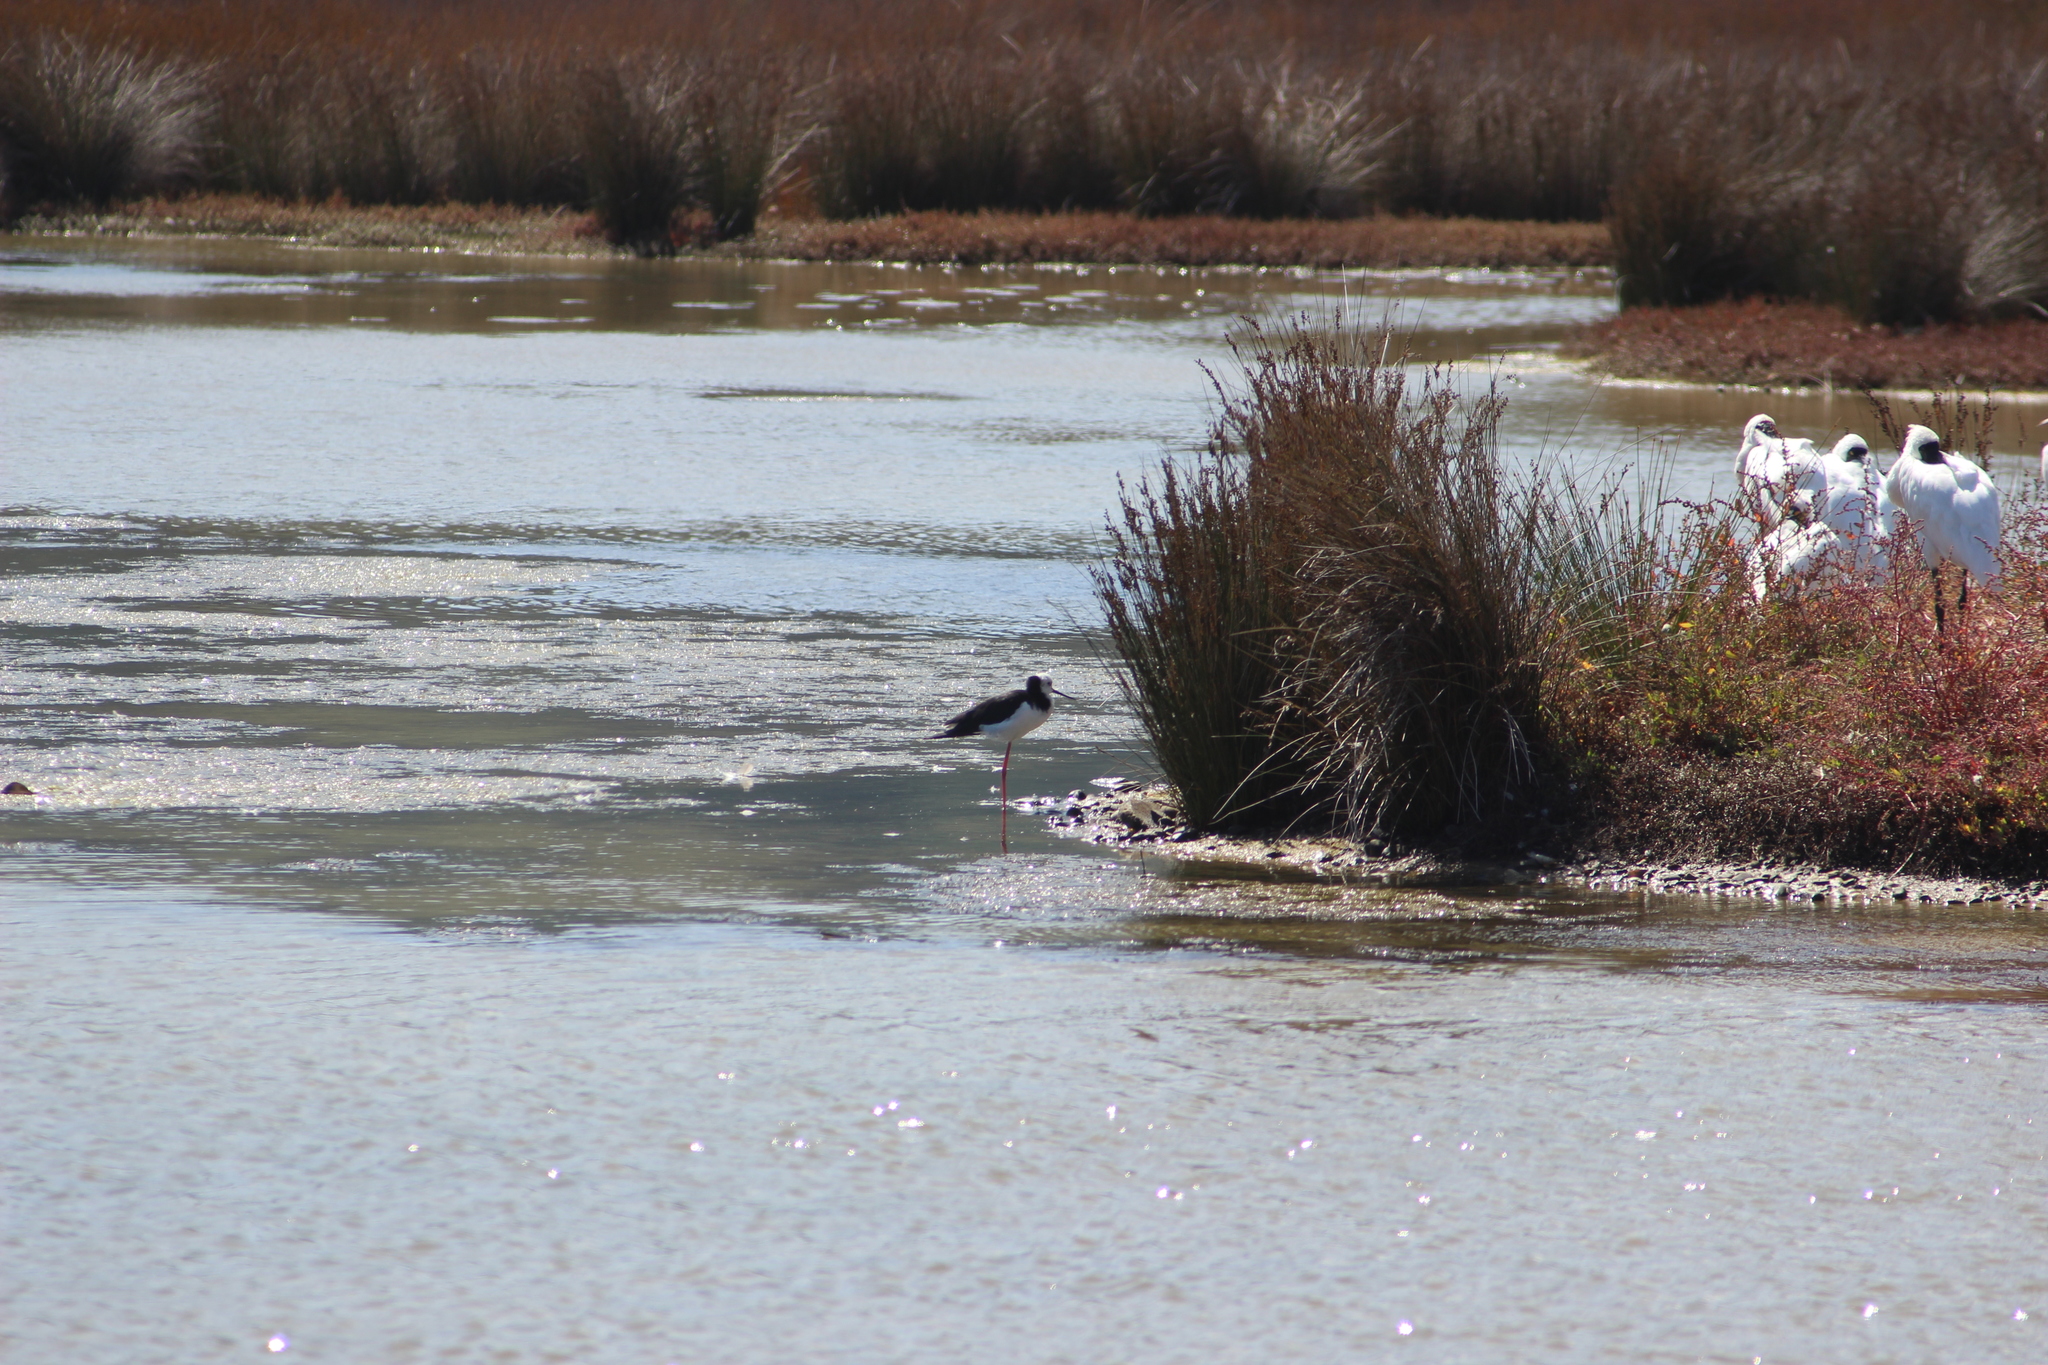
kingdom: Animalia
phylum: Chordata
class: Aves
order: Charadriiformes
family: Recurvirostridae
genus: Himantopus
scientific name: Himantopus leucocephalus
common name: White-headed stilt
